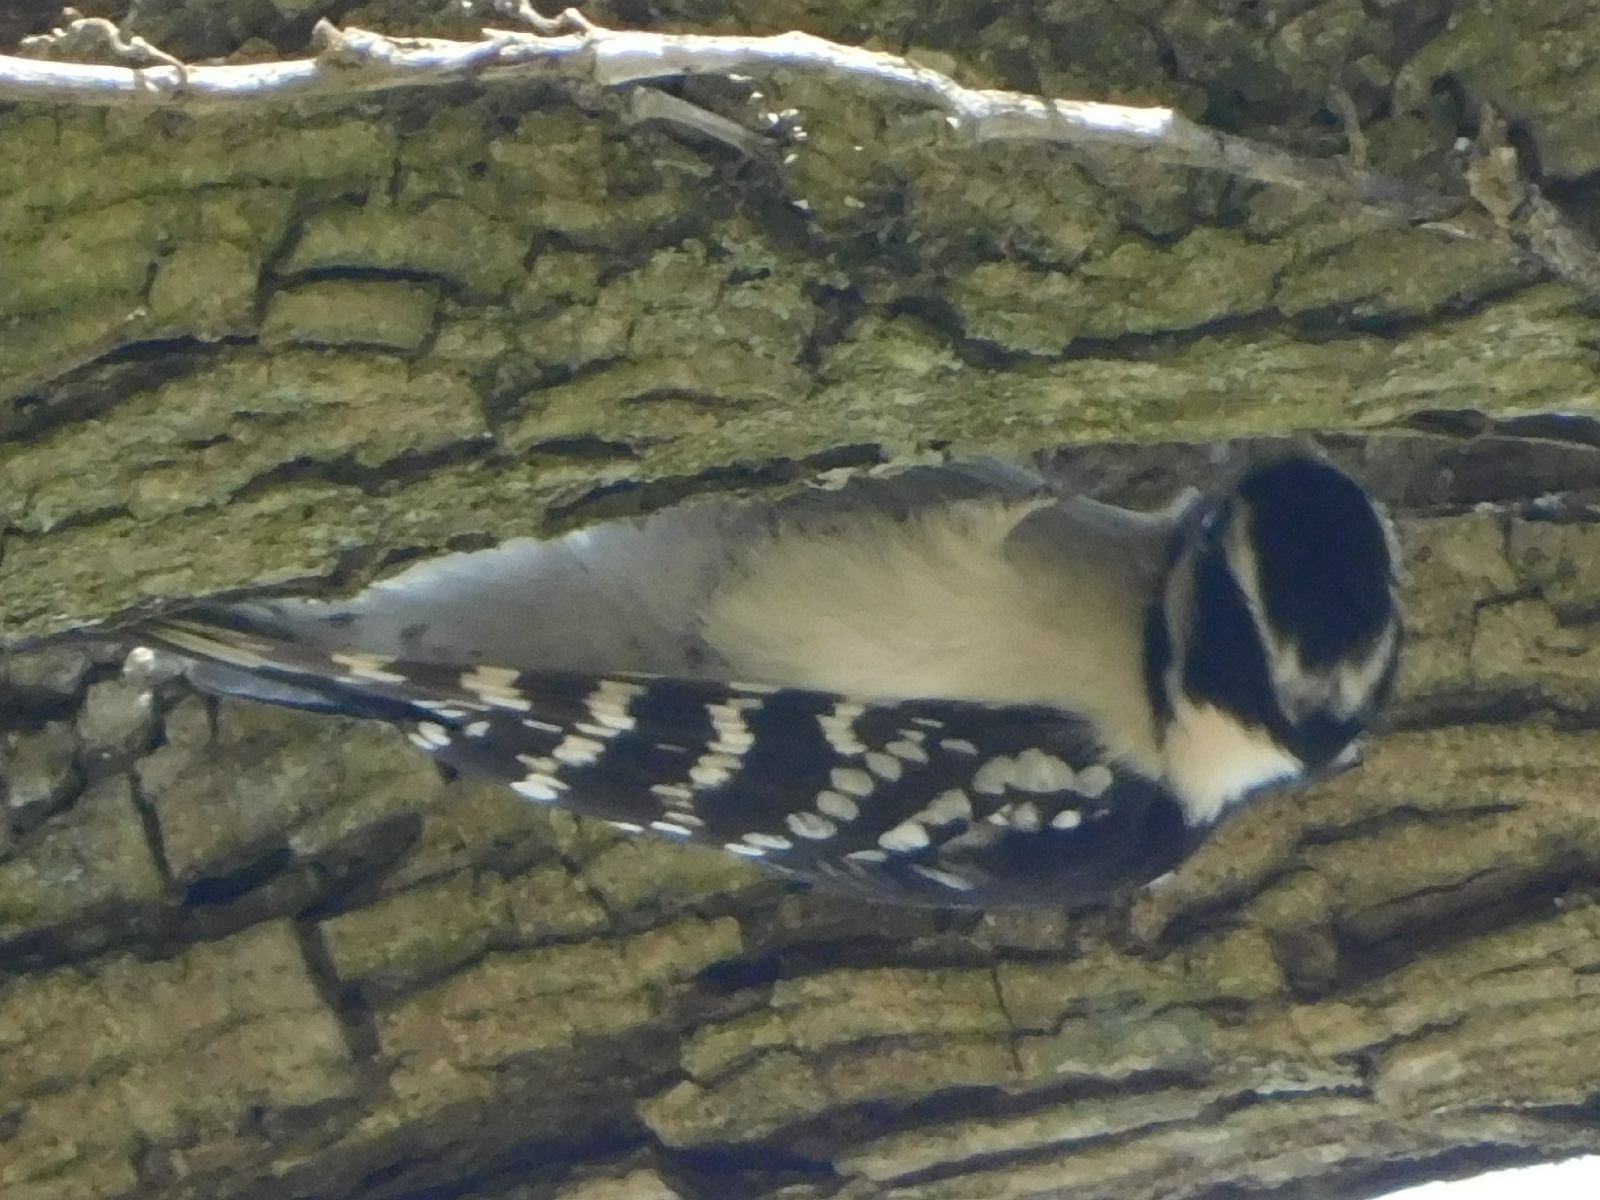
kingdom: Animalia
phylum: Chordata
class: Aves
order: Piciformes
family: Picidae
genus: Dryobates
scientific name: Dryobates pubescens
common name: Downy woodpecker
